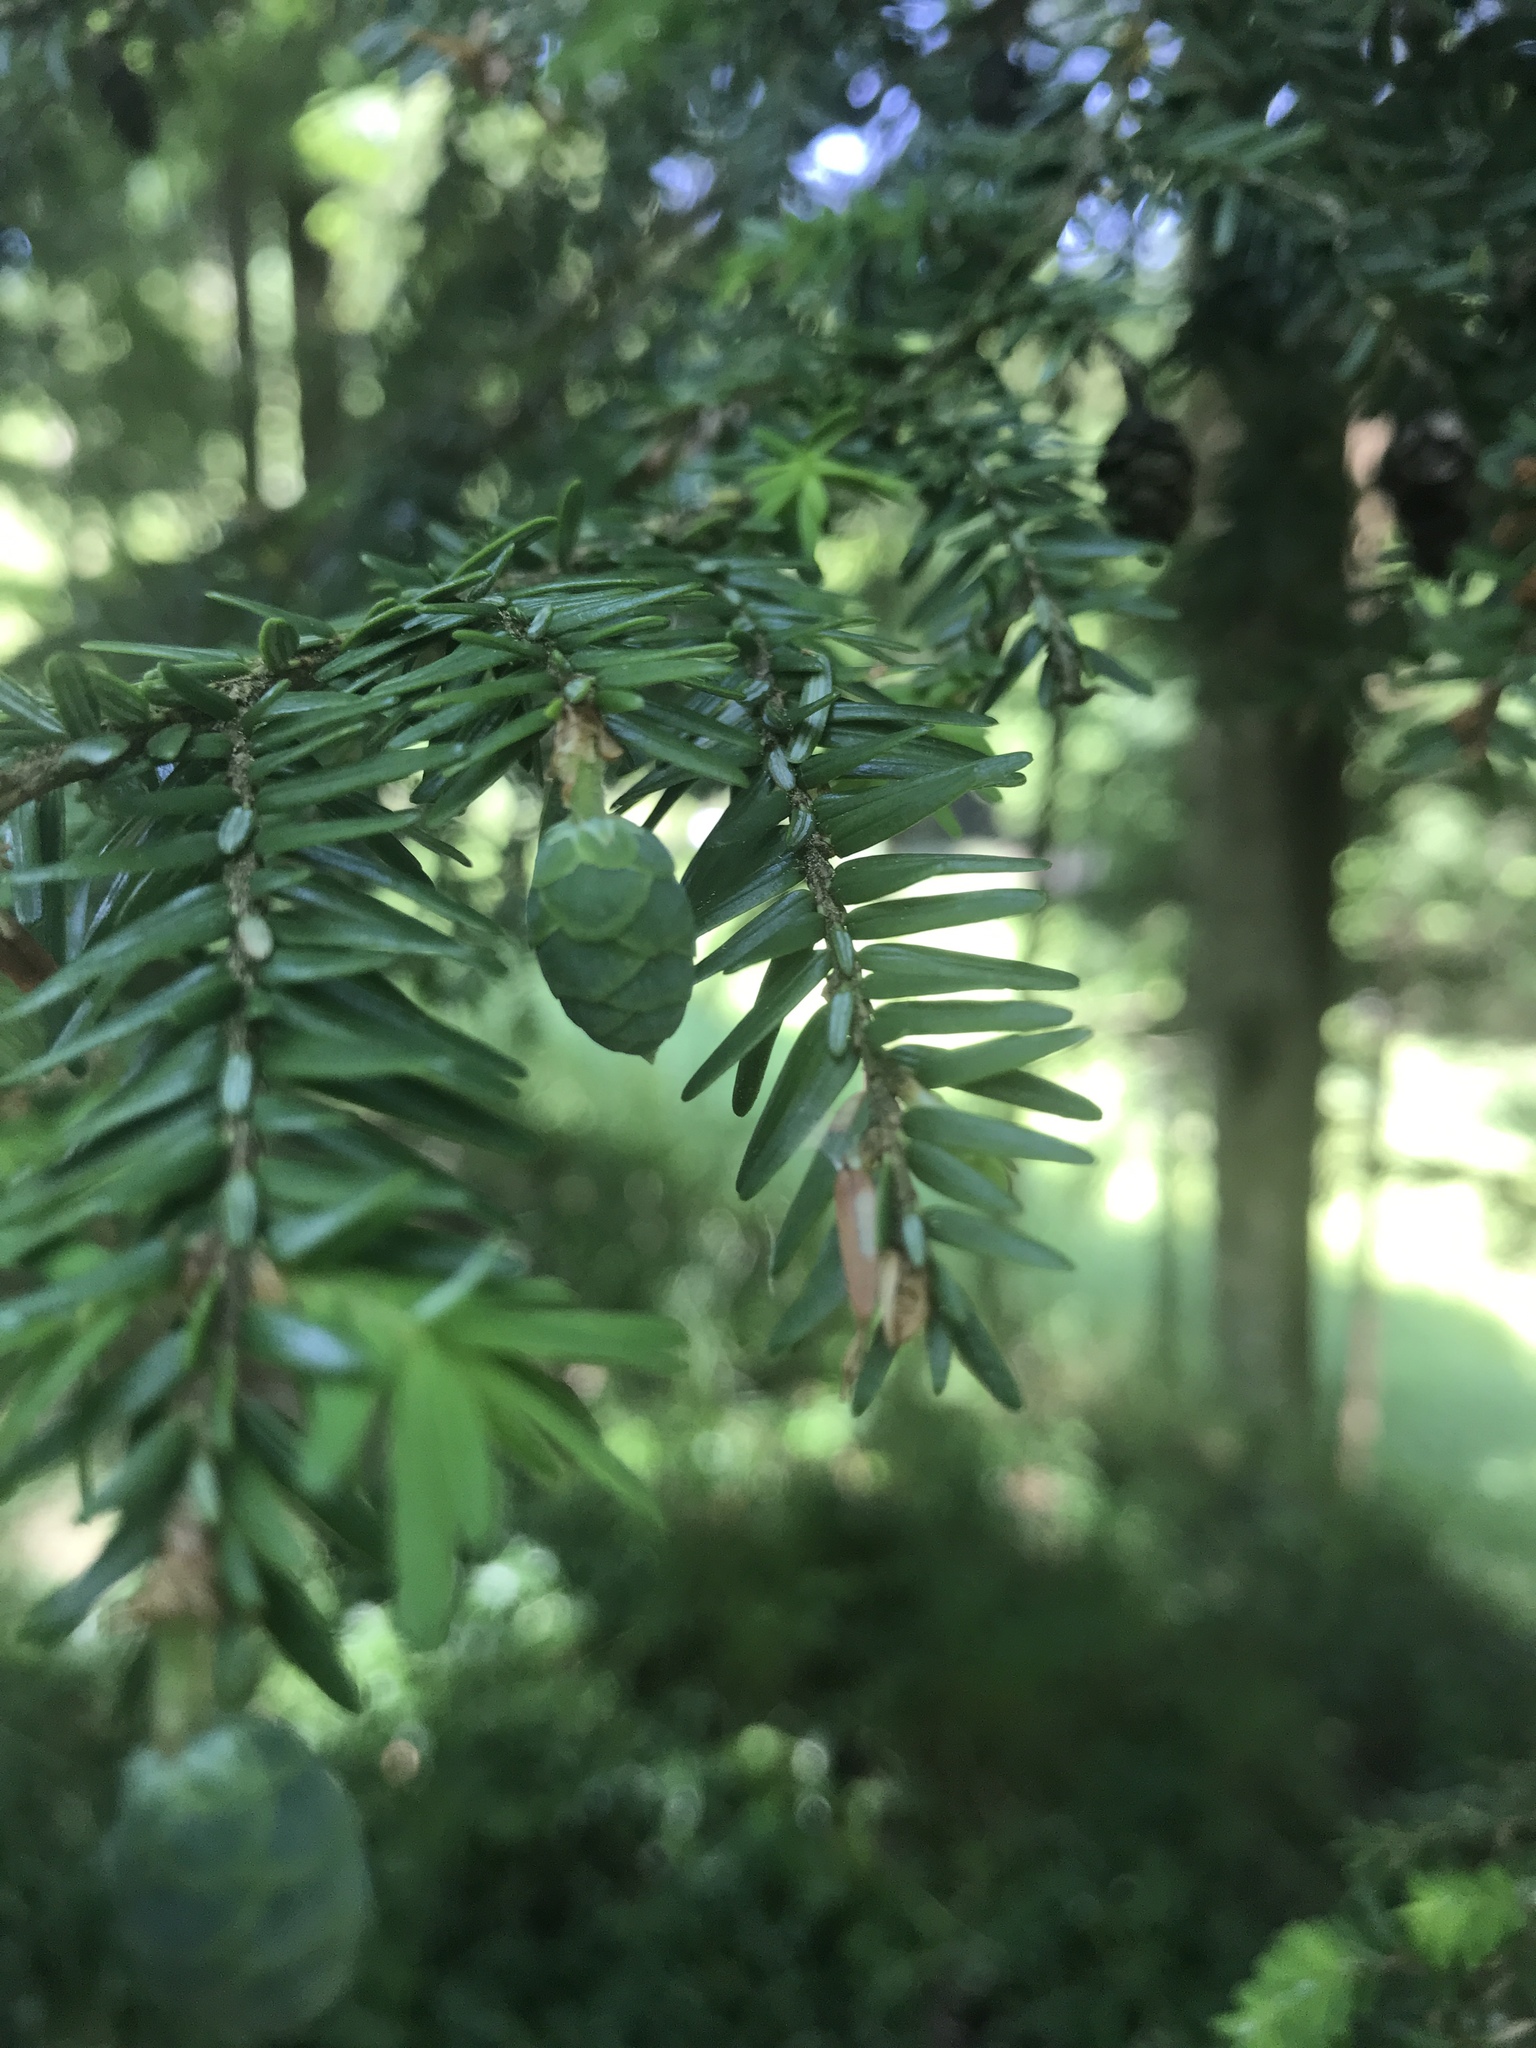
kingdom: Plantae
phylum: Tracheophyta
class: Pinopsida
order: Pinales
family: Pinaceae
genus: Tsuga
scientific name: Tsuga canadensis
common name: Eastern hemlock
